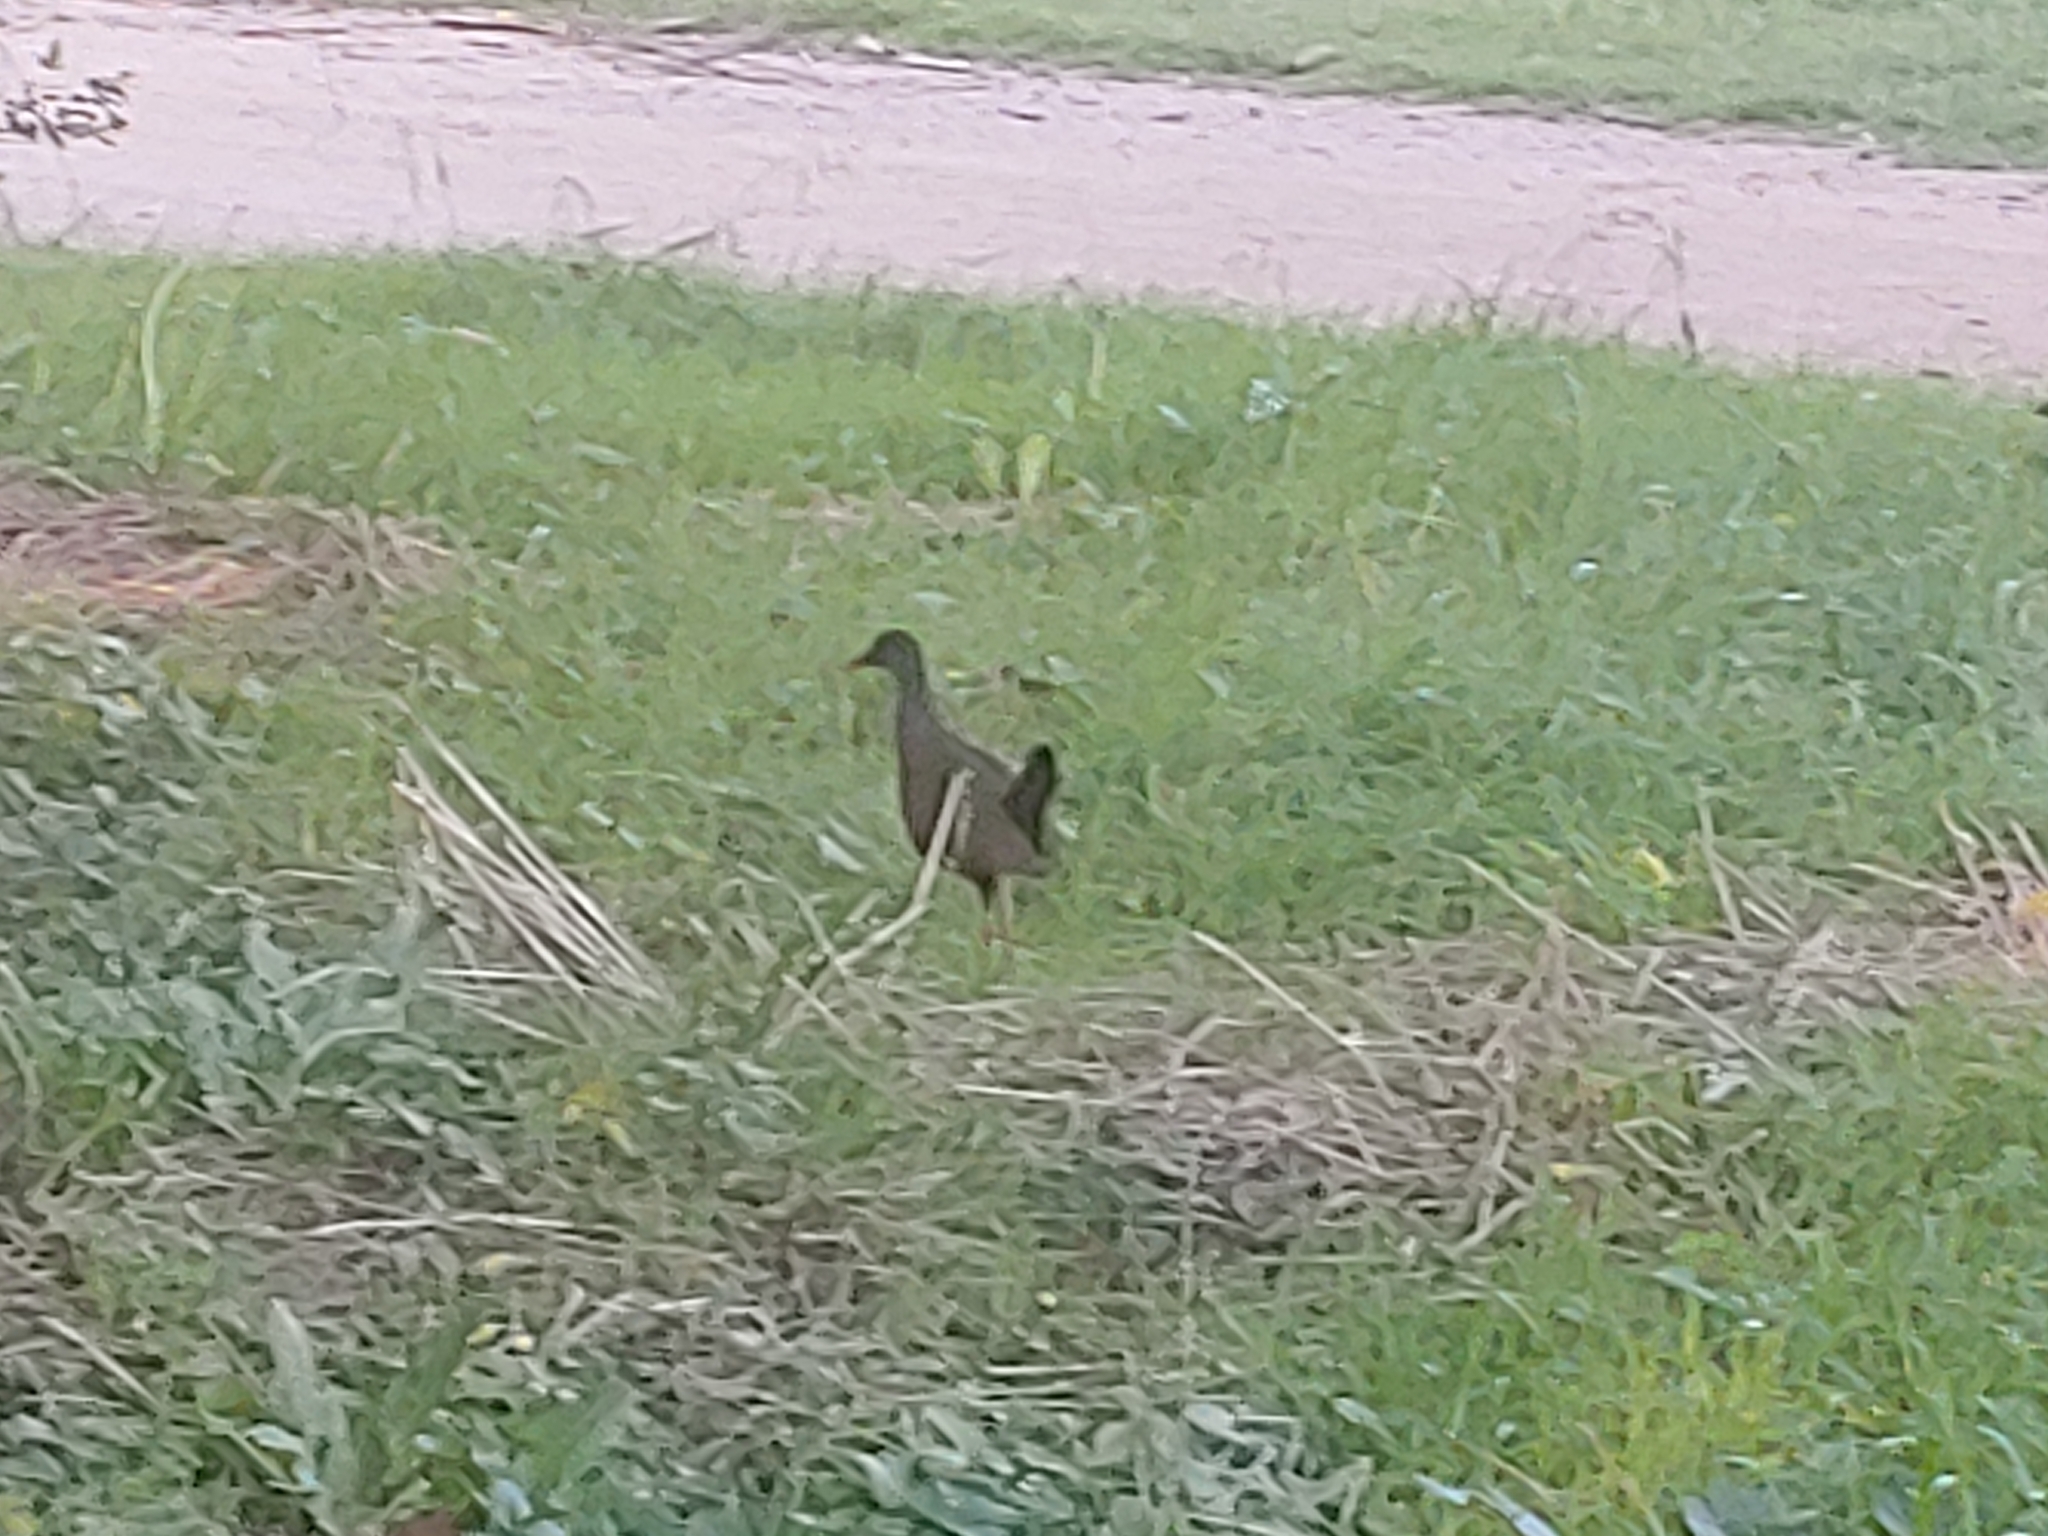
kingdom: Animalia
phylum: Chordata
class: Aves
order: Gruiformes
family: Rallidae
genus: Aramides
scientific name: Aramides ypecaha
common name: Giant wood rail
